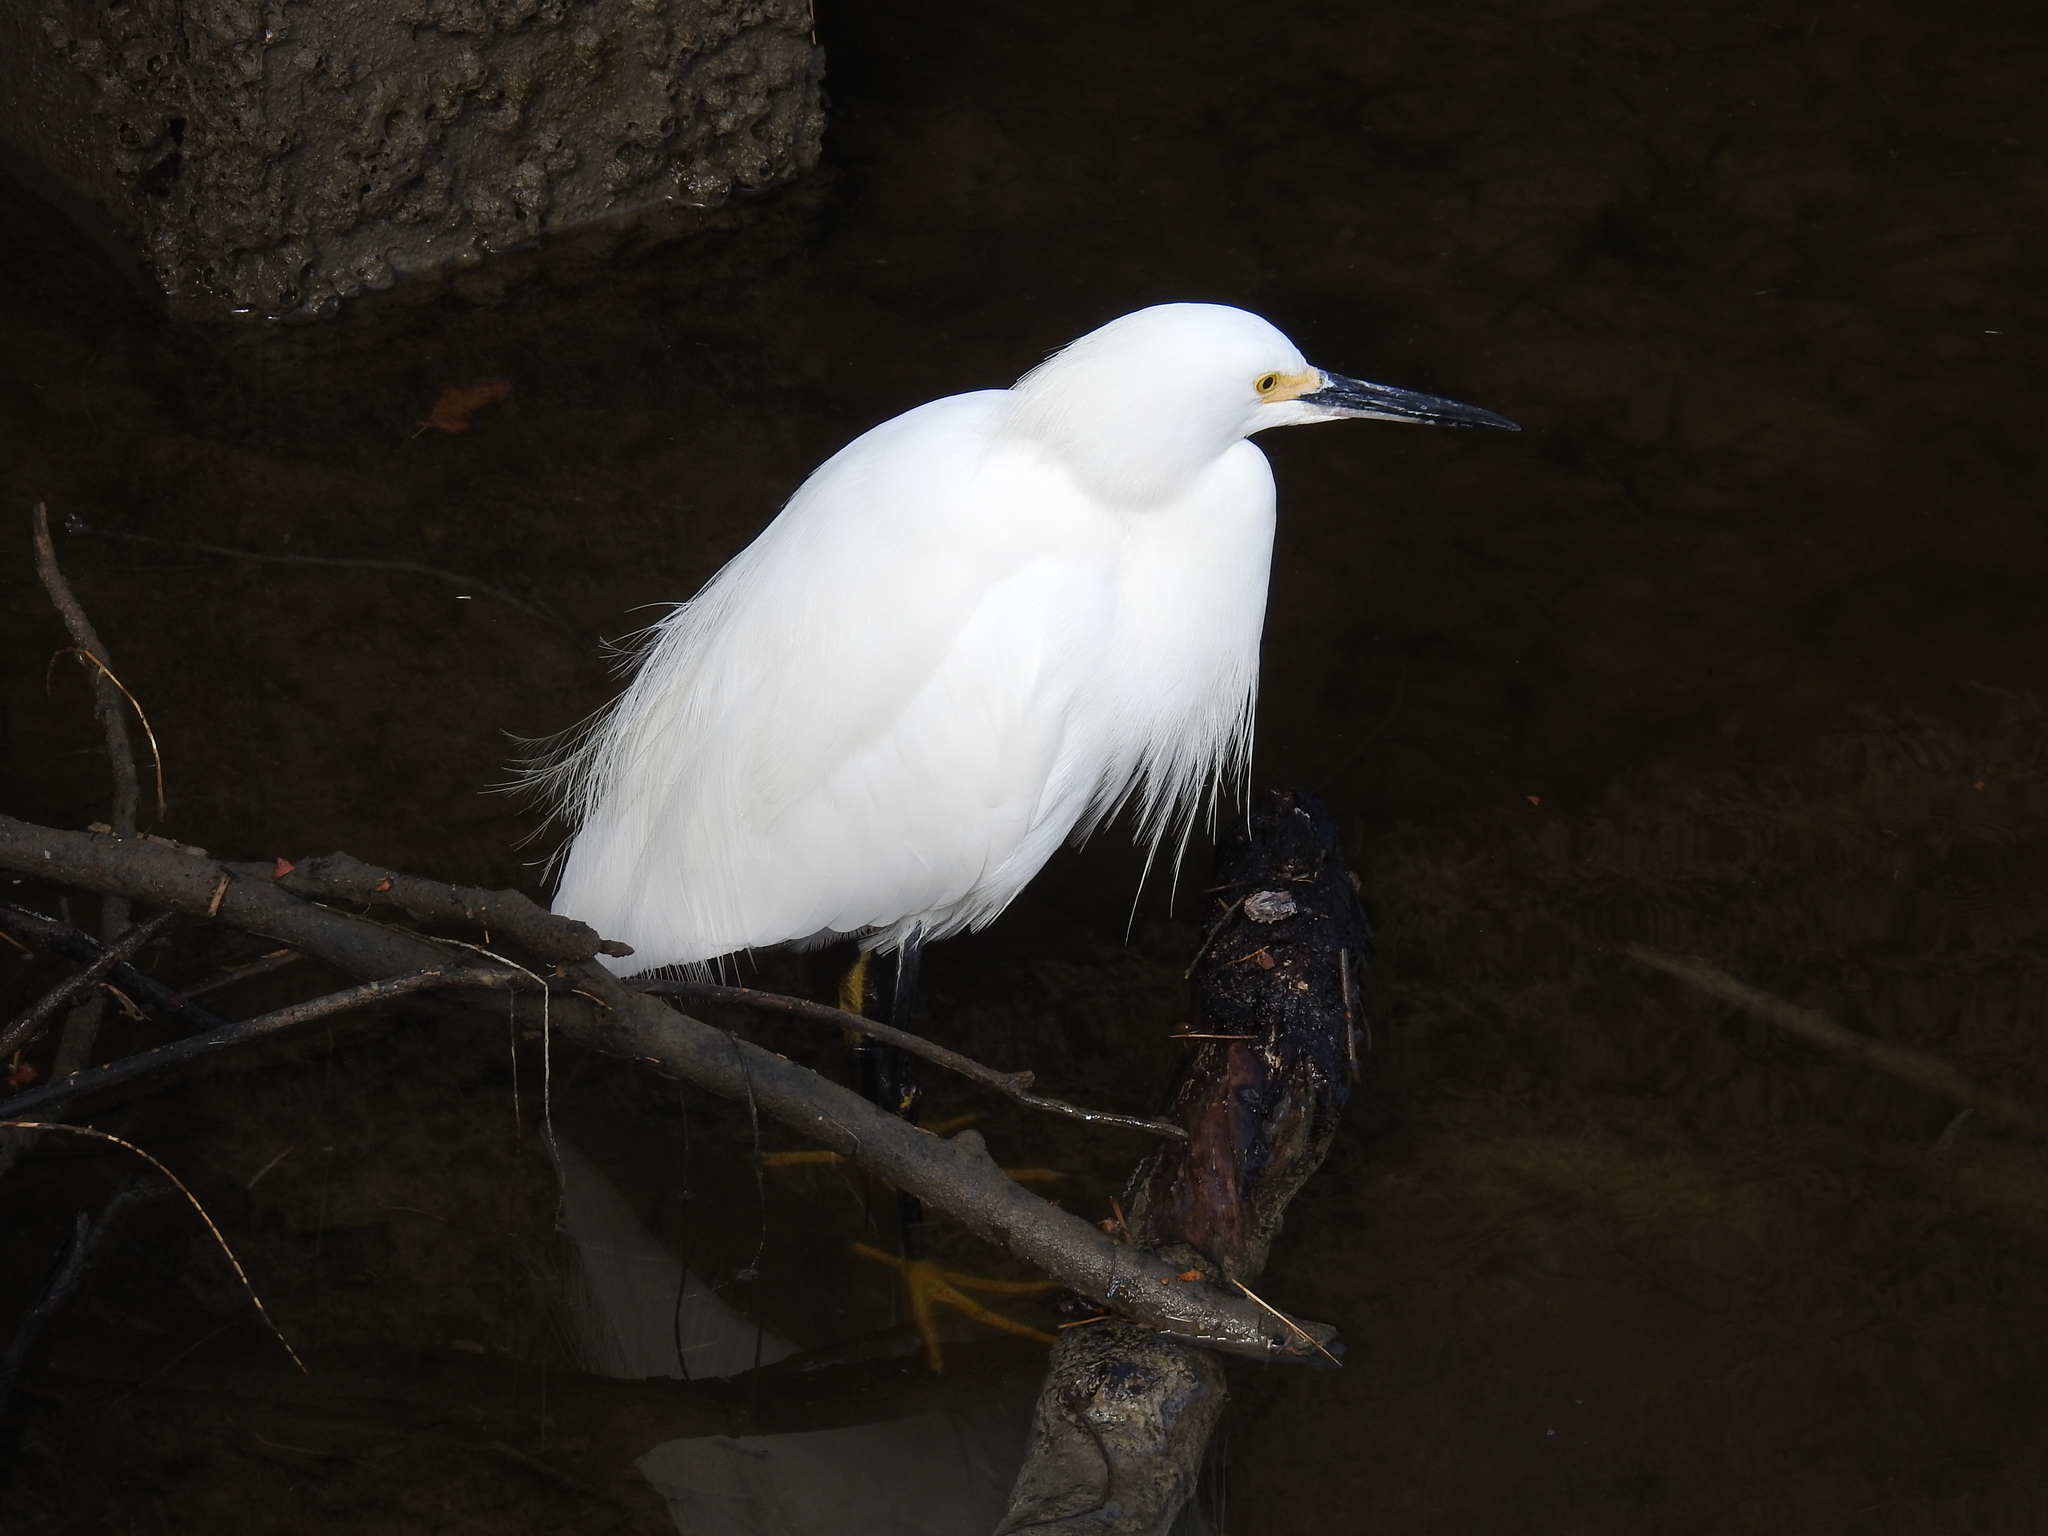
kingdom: Animalia
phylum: Chordata
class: Aves
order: Pelecaniformes
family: Ardeidae
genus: Egretta
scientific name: Egretta thula
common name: Snowy egret
